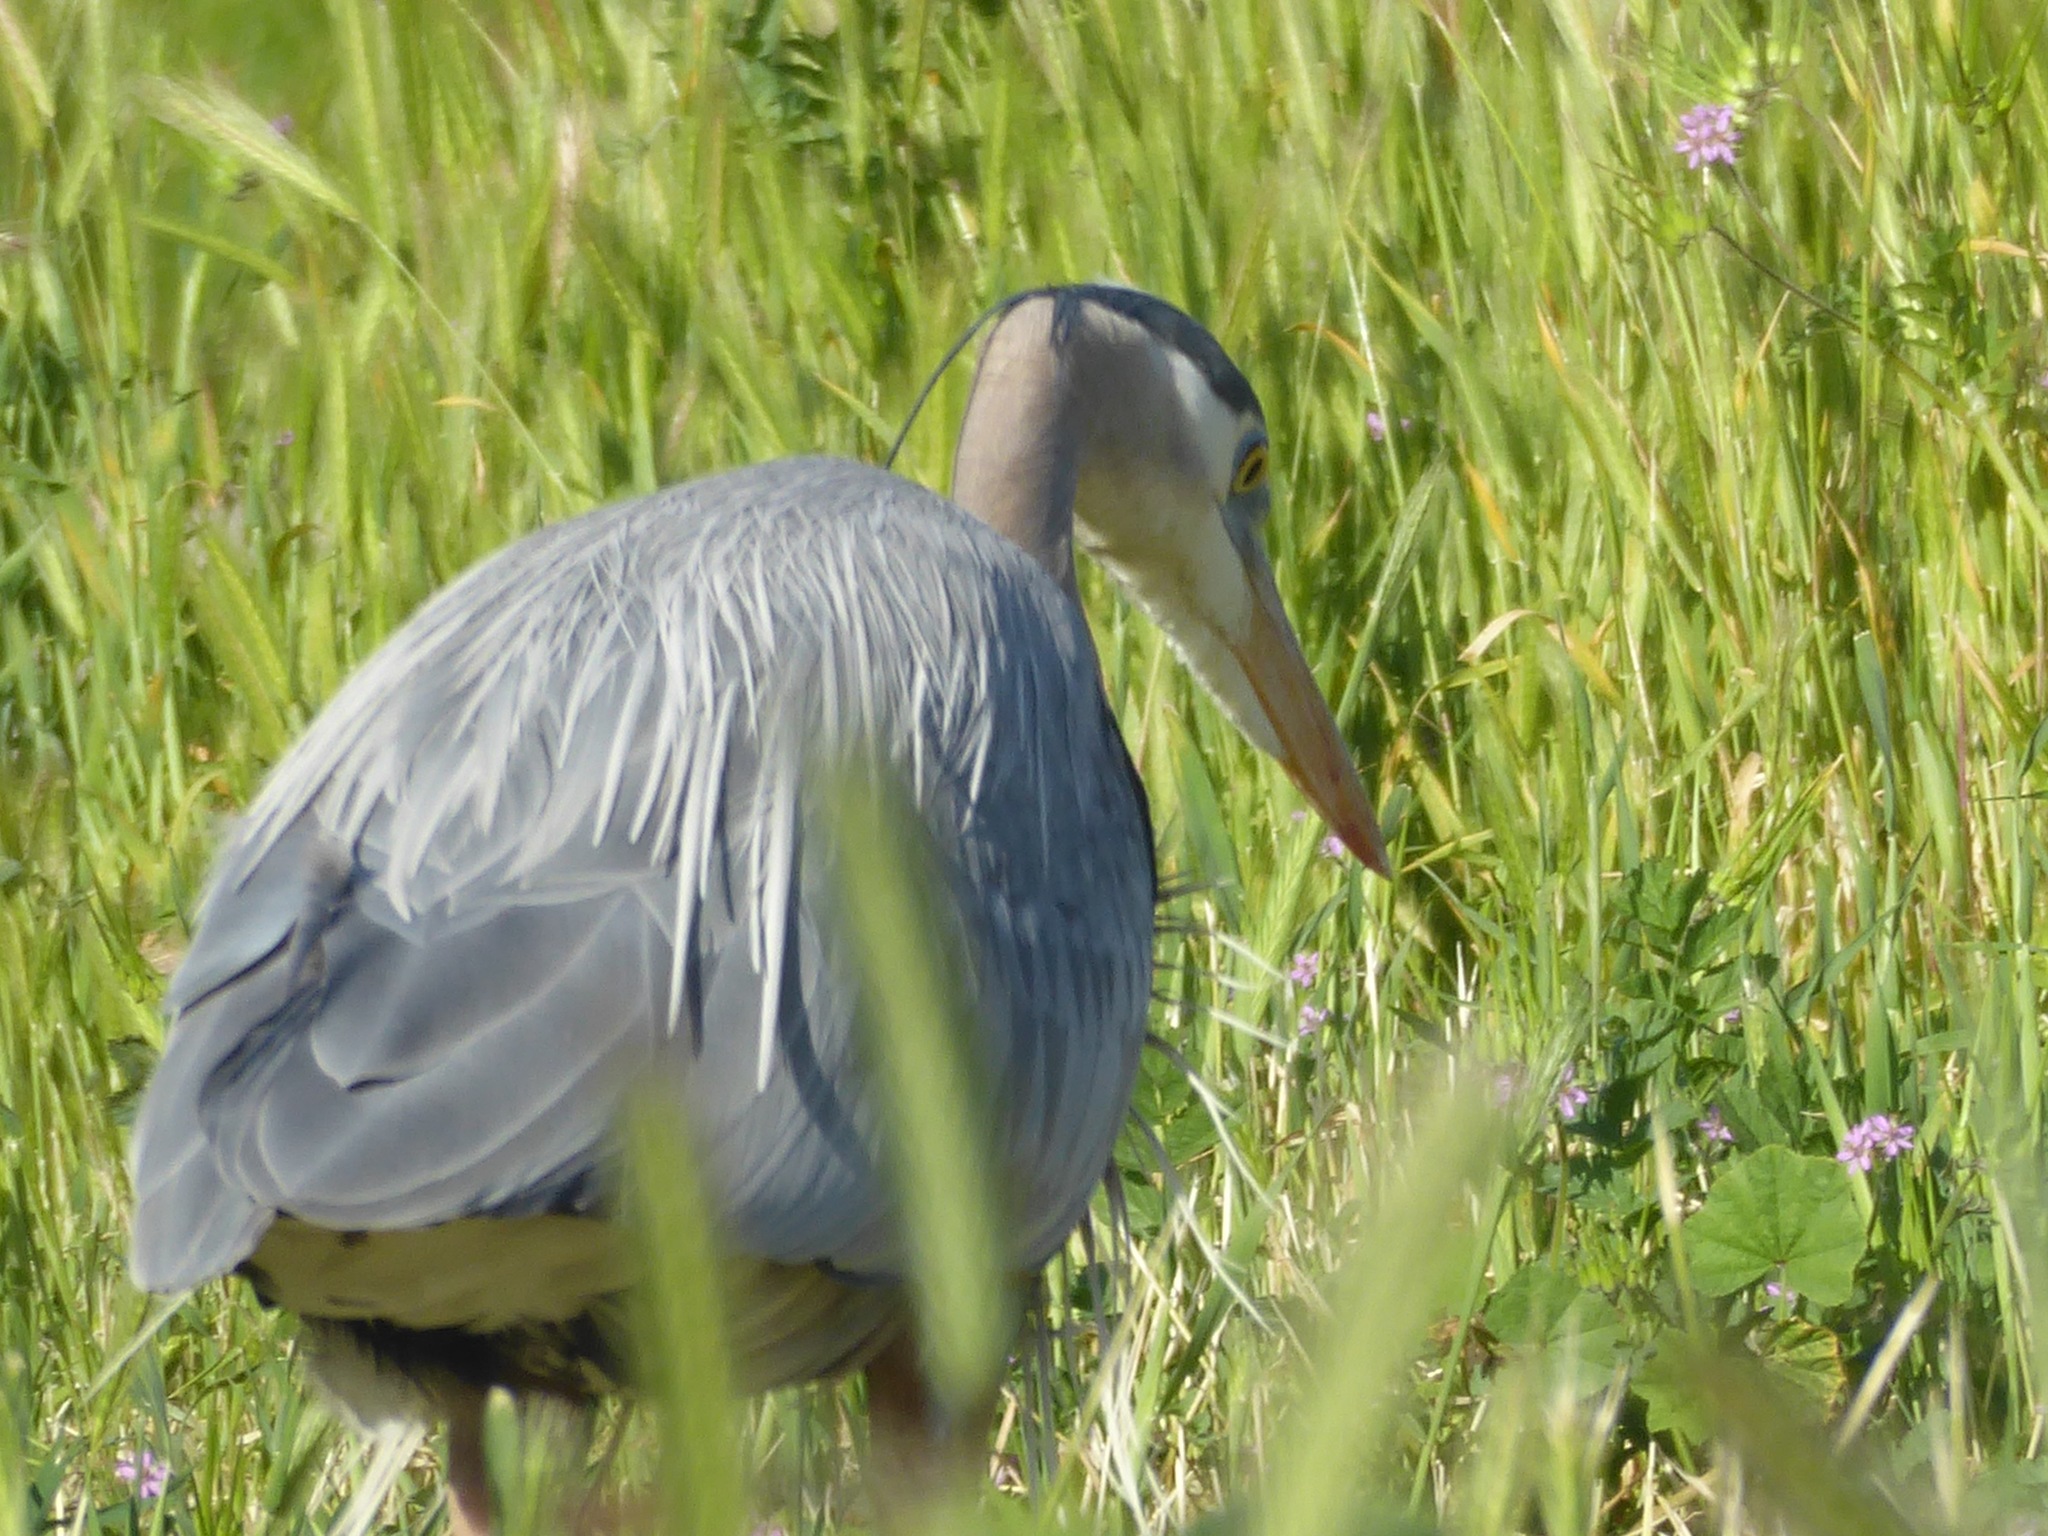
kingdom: Animalia
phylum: Chordata
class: Aves
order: Pelecaniformes
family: Ardeidae
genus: Ardea
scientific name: Ardea herodias
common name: Great blue heron
